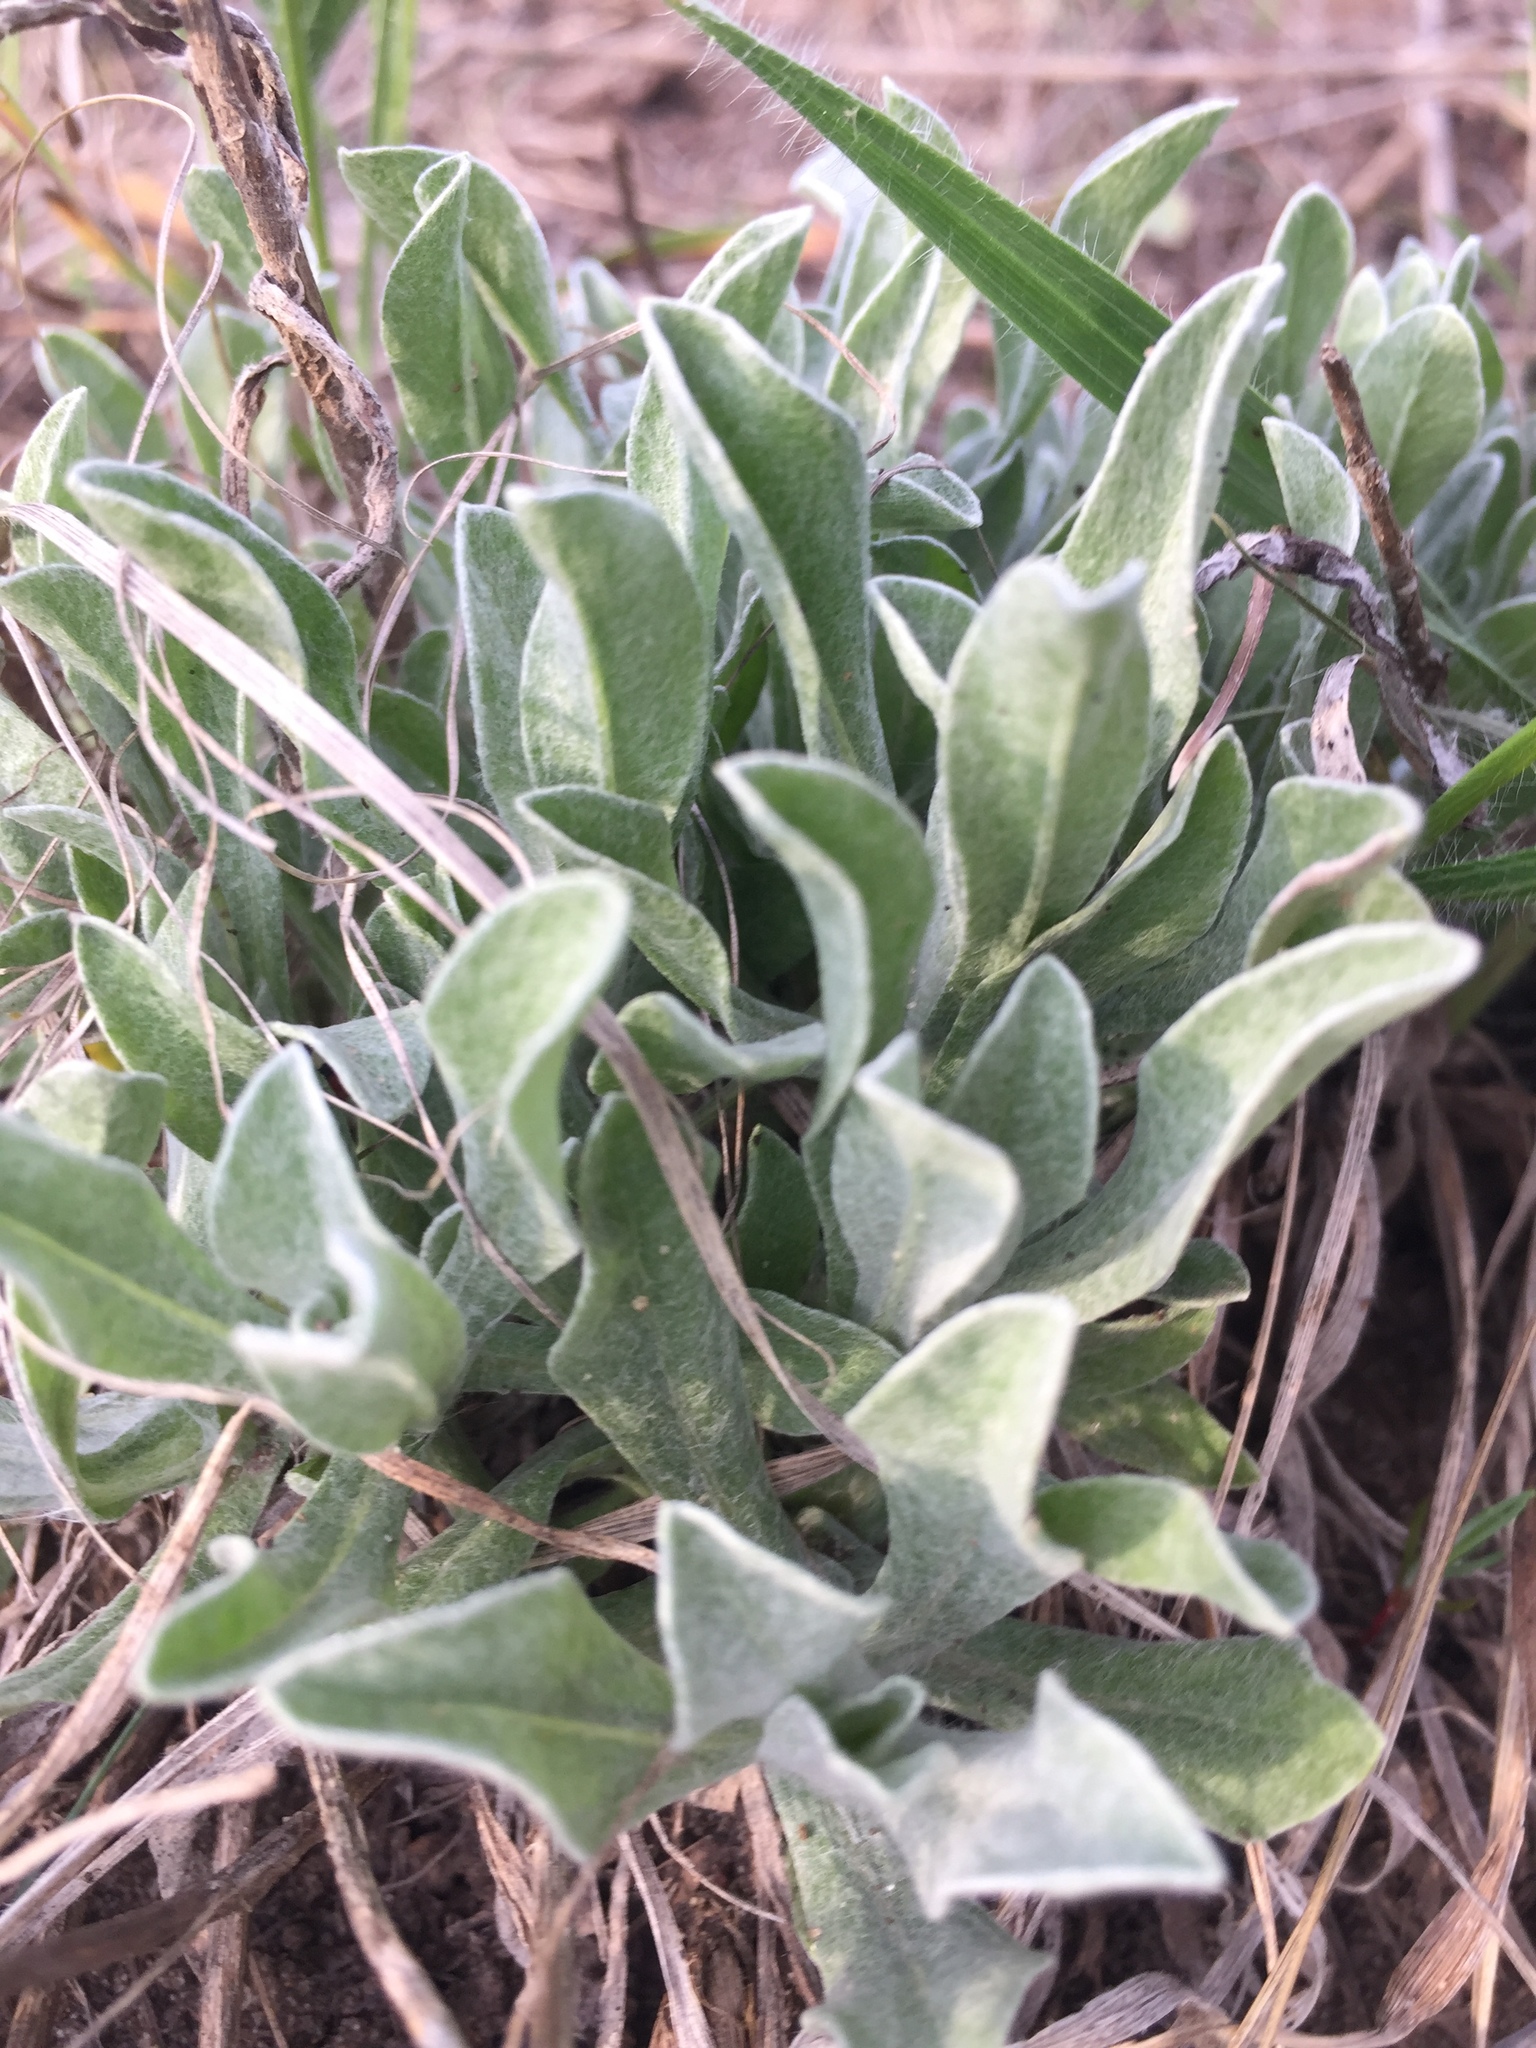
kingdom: Plantae
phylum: Tracheophyta
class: Magnoliopsida
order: Asterales
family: Asteraceae
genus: Helichrysum
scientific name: Helichrysum arenarium
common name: Strawflower
